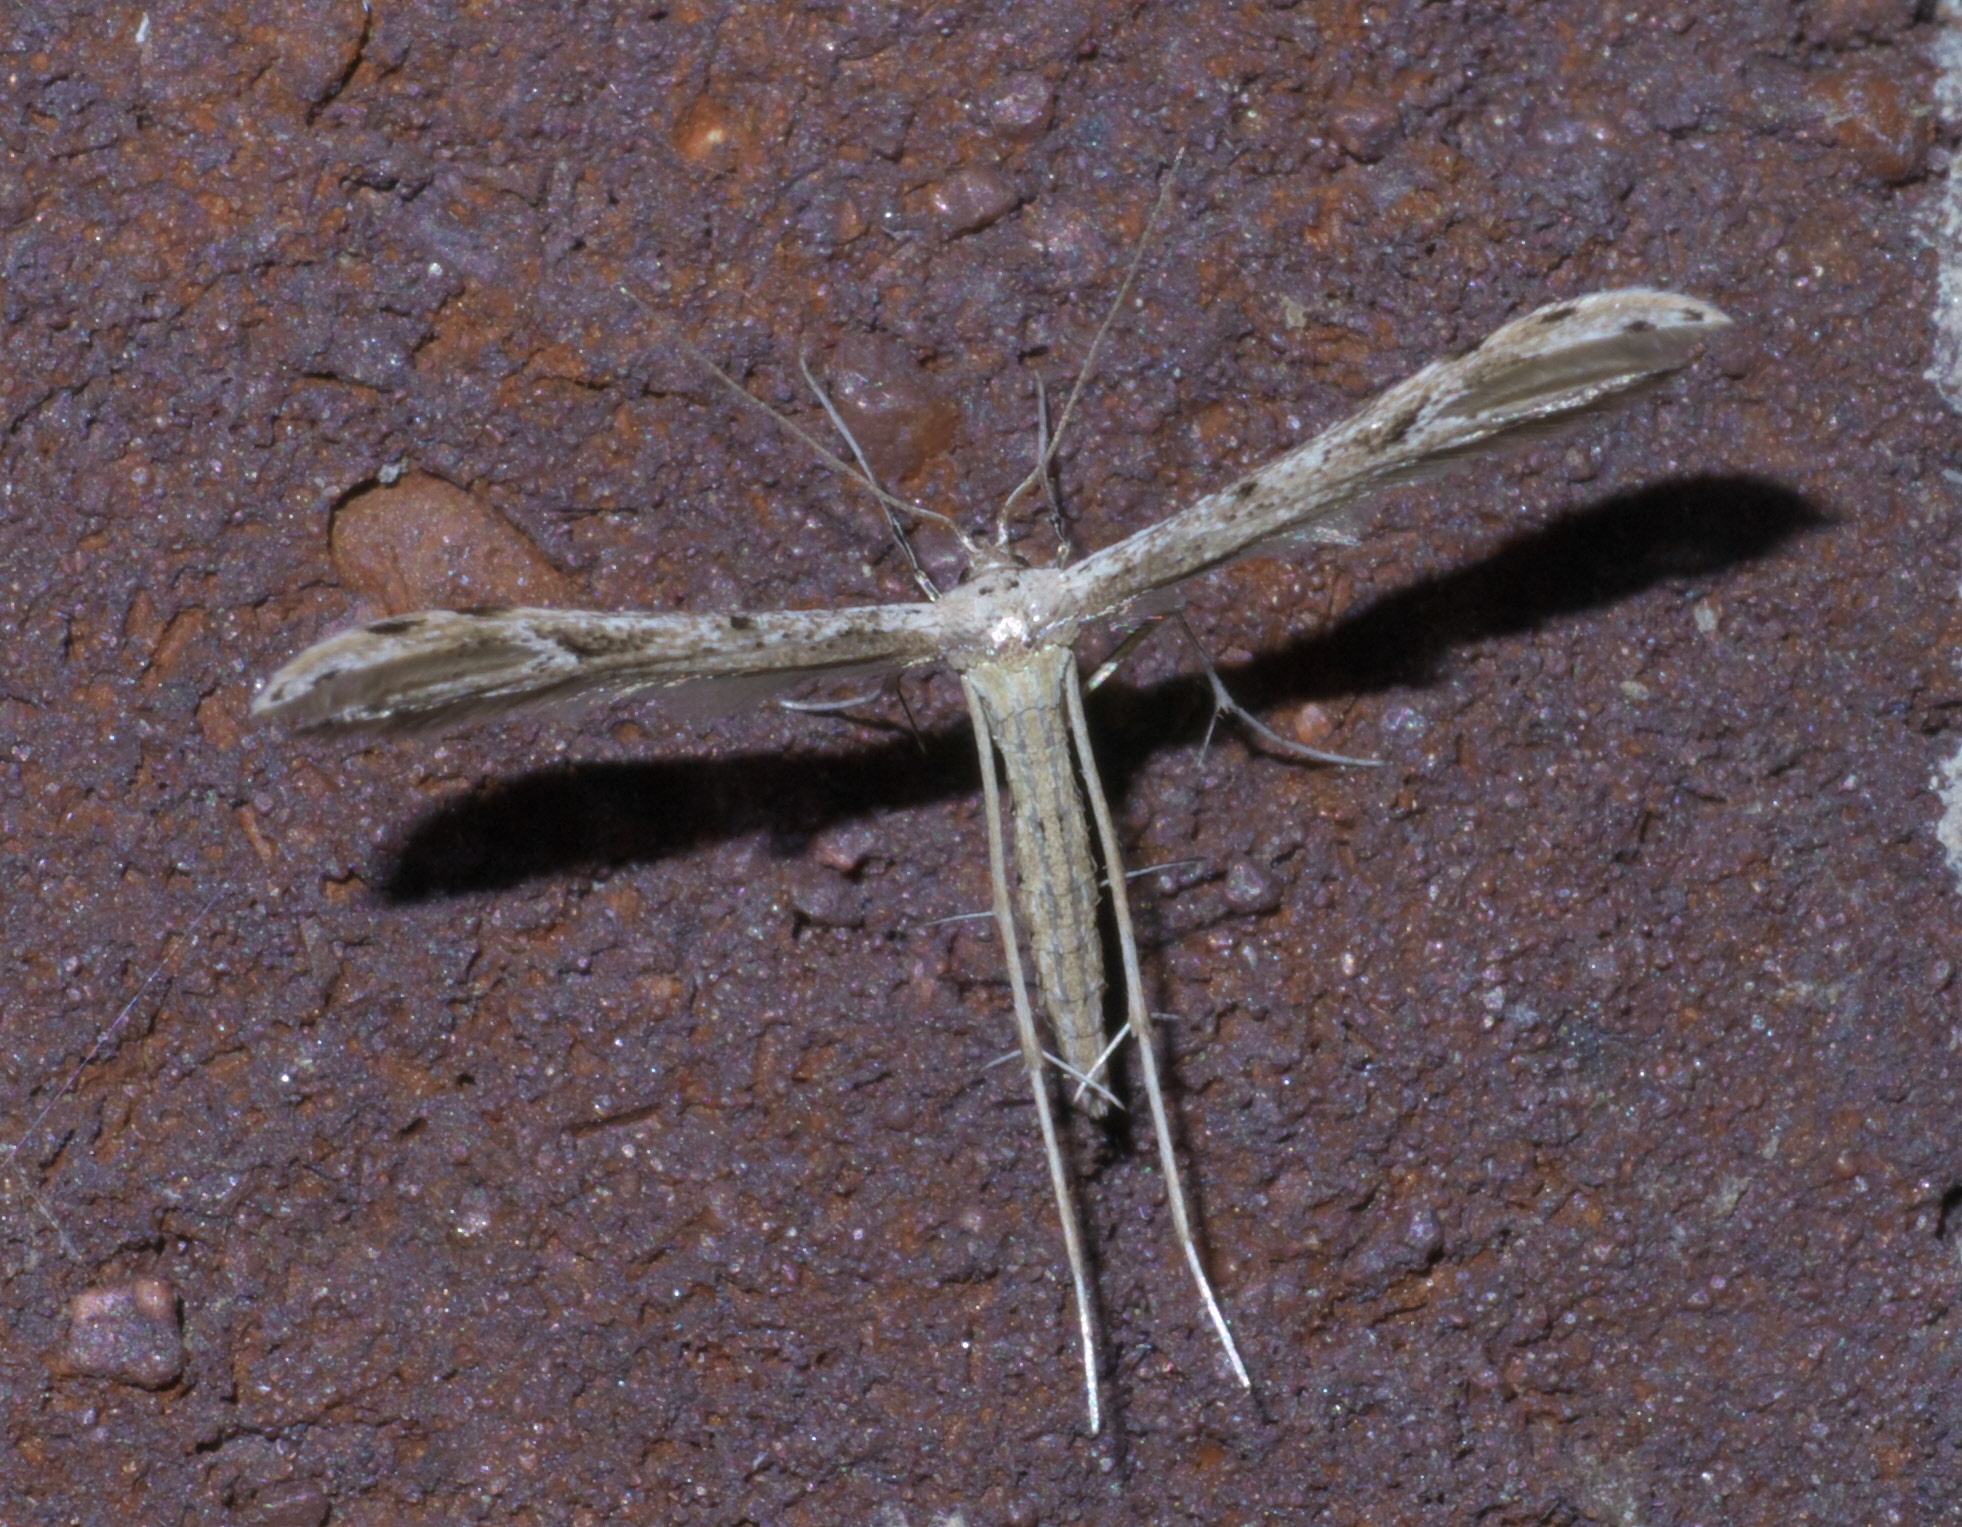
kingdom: Animalia
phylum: Arthropoda
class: Insecta
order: Lepidoptera
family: Pterophoridae
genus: Pselnophorus
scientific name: Pselnophorus belfragei
